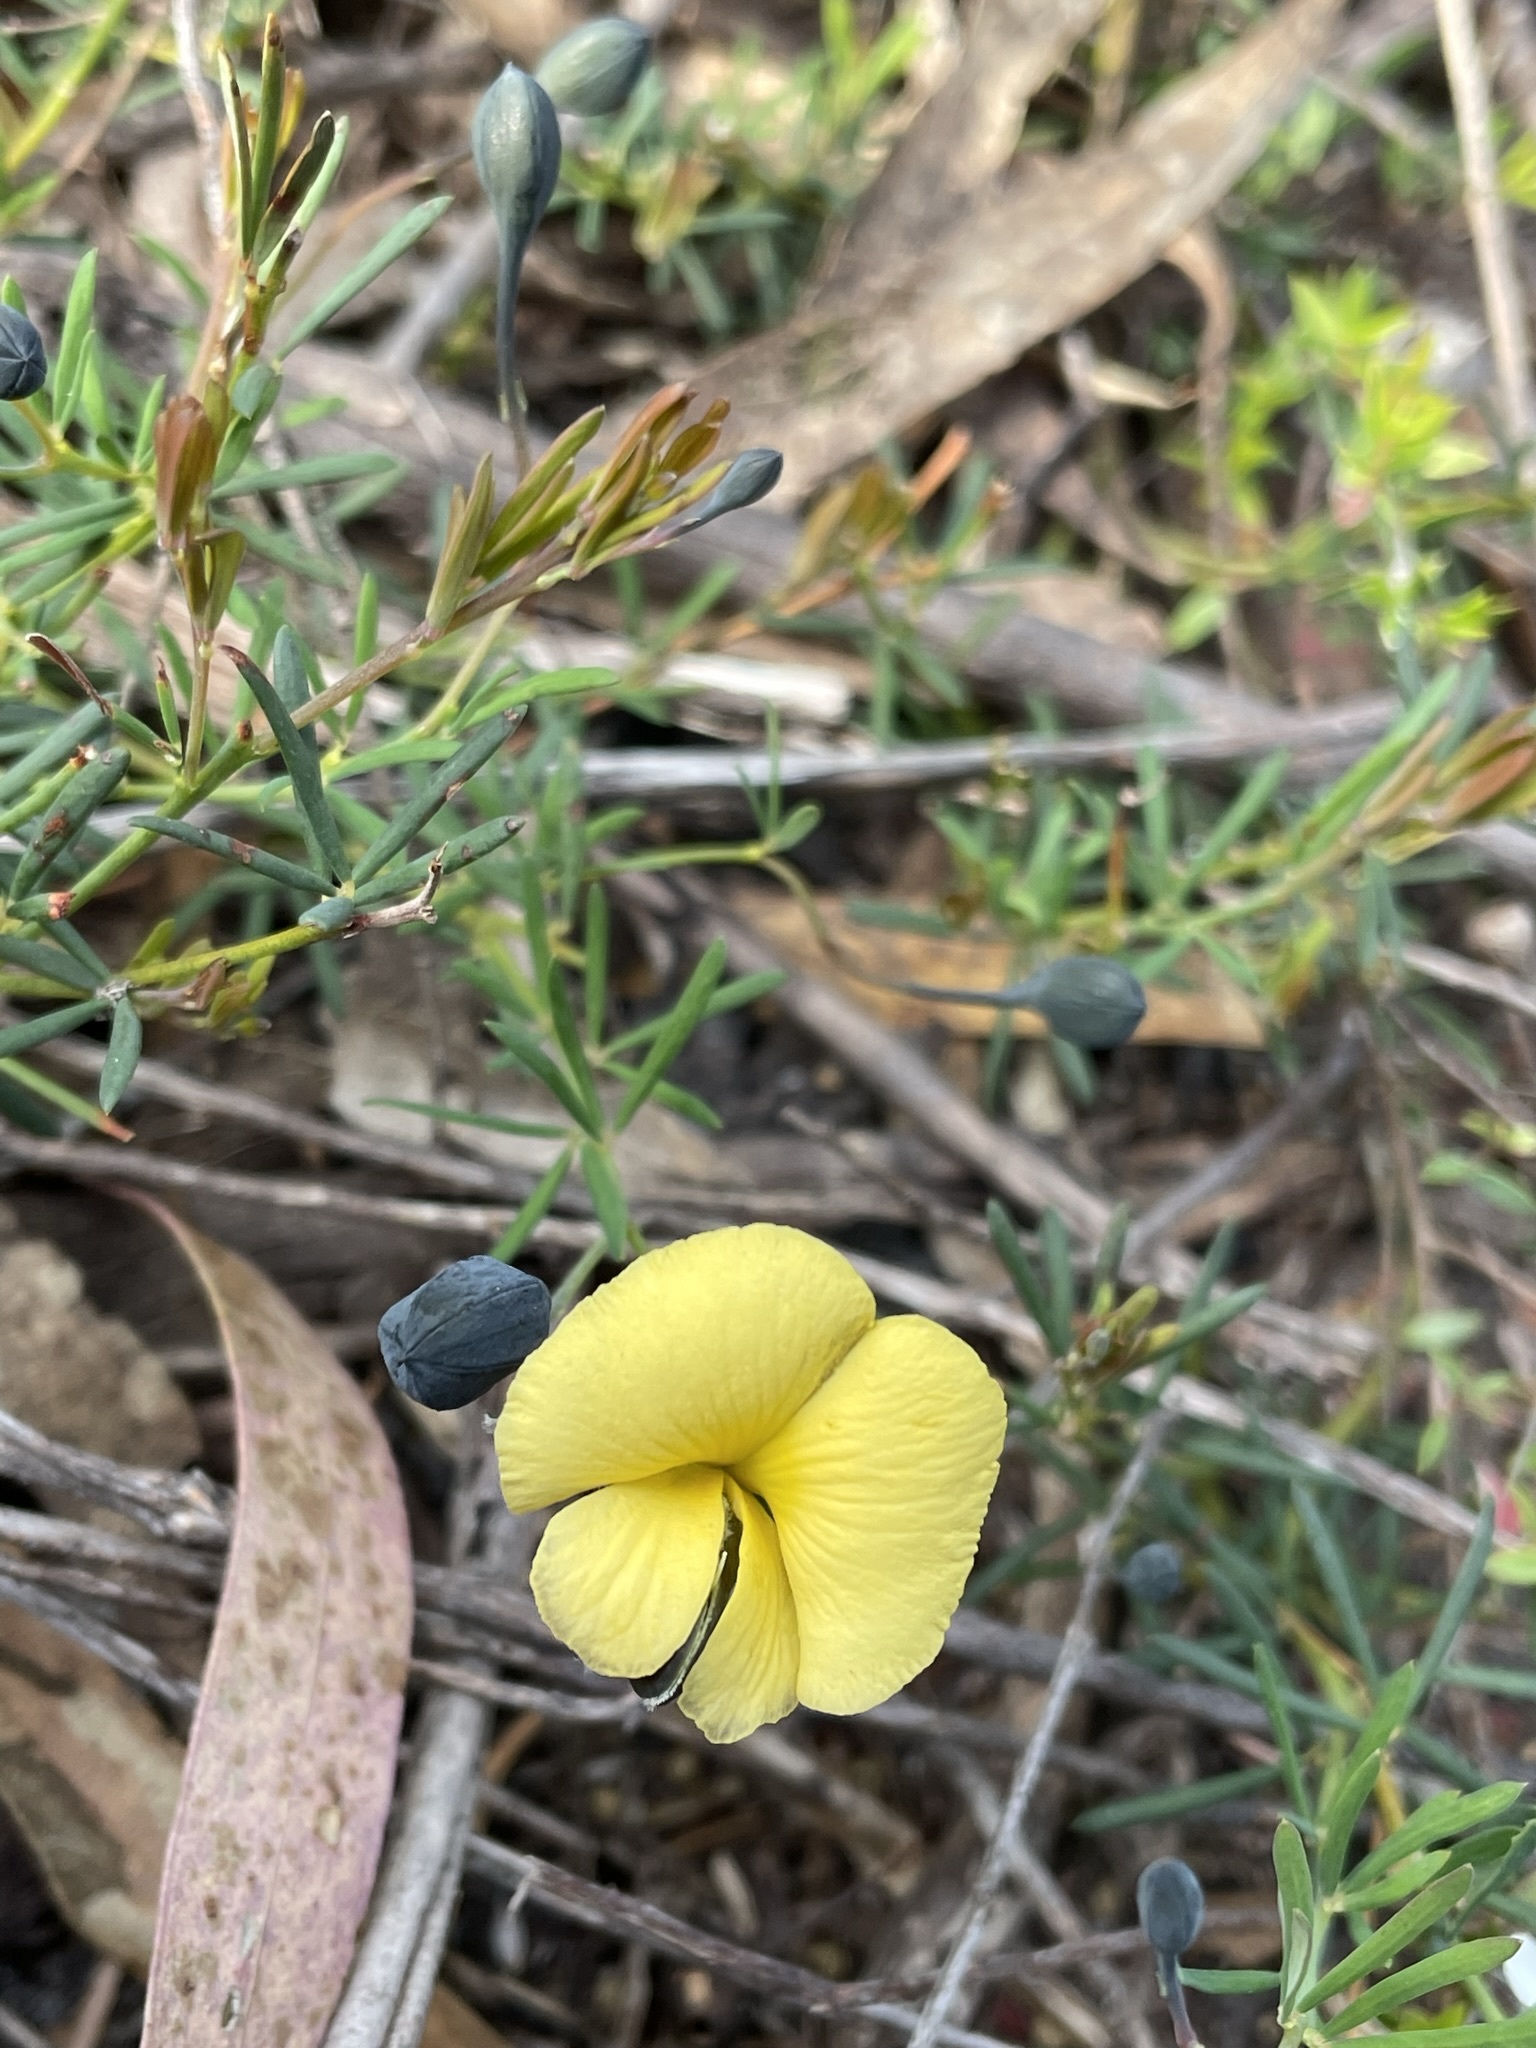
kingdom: Plantae
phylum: Tracheophyta
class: Magnoliopsida
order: Fabales
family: Fabaceae
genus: Gompholobium
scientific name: Gompholobium huegelii
